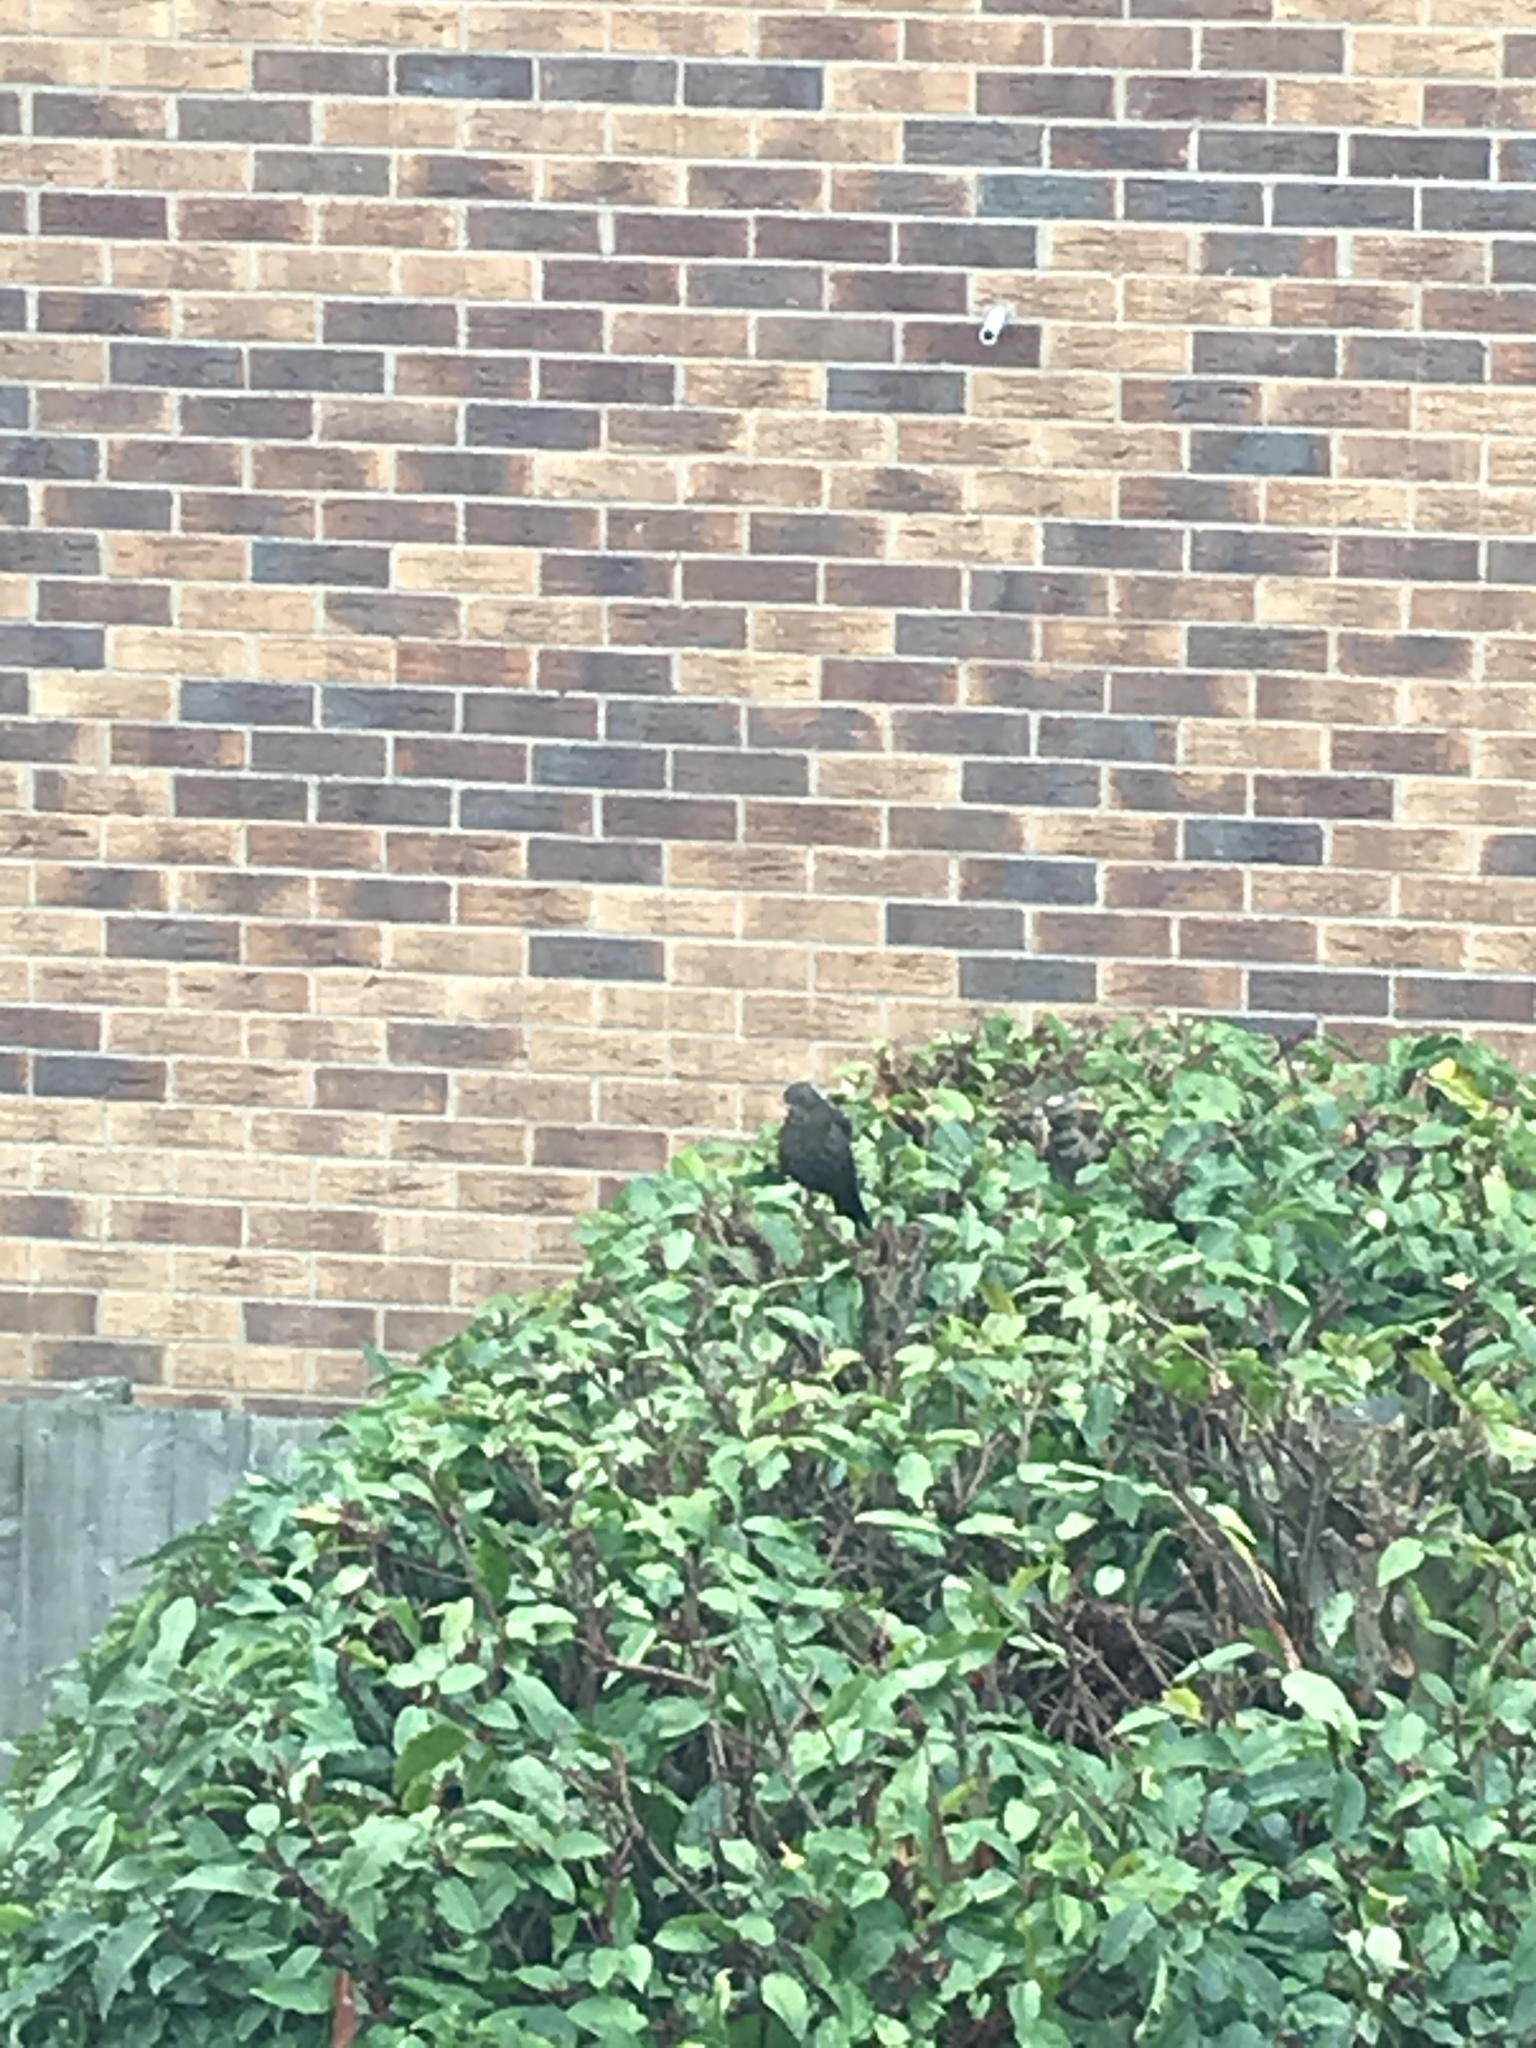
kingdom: Animalia
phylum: Chordata
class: Aves
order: Passeriformes
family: Turdidae
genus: Turdus
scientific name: Turdus merula
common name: Common blackbird
